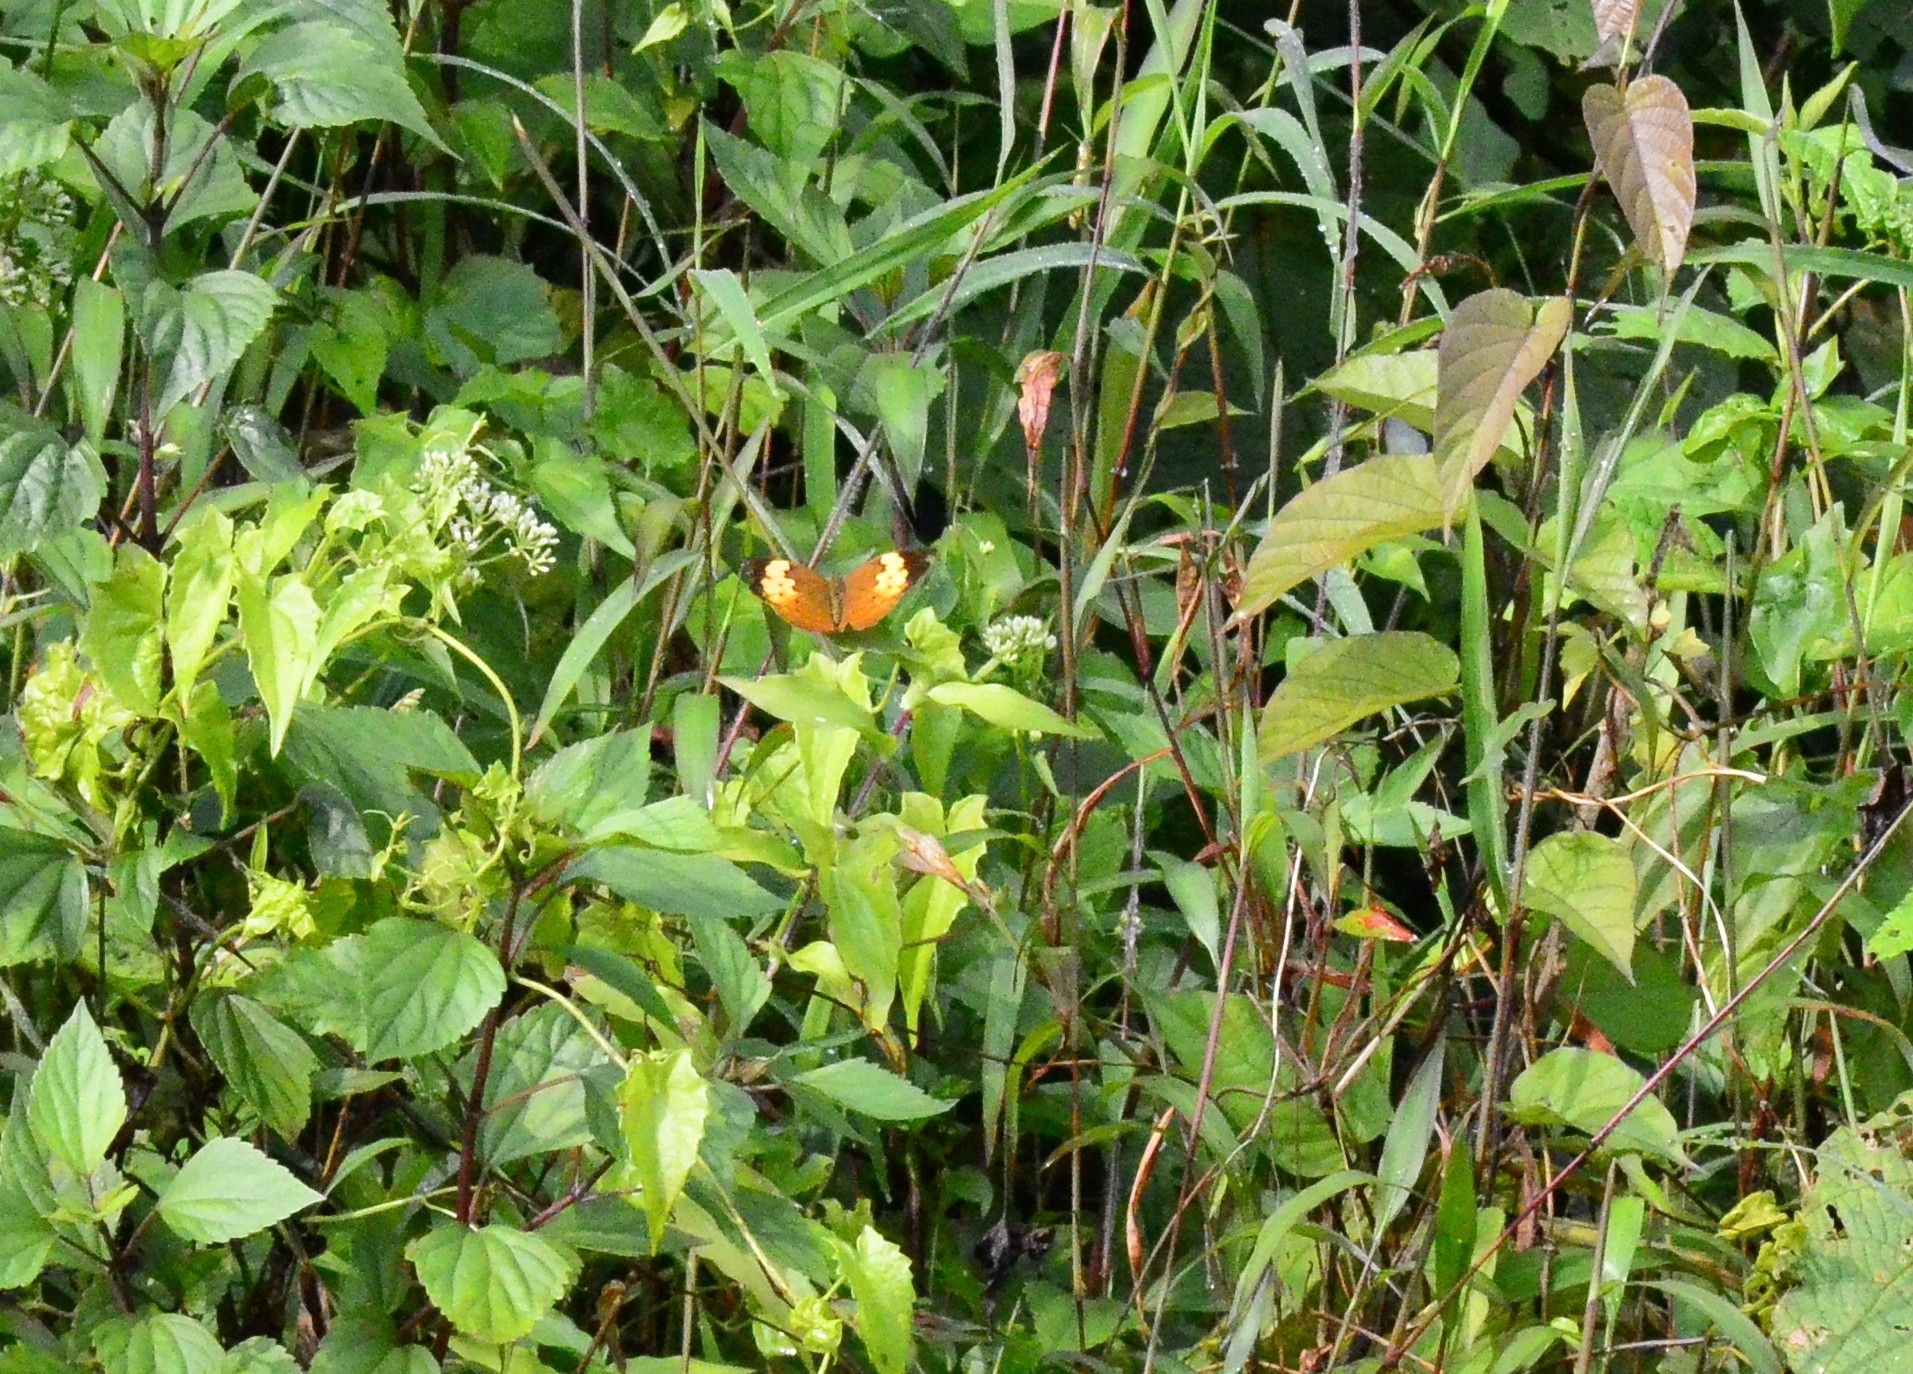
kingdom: Animalia
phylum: Arthropoda
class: Insecta
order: Lepidoptera
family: Nymphalidae
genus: Cupha
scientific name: Cupha erymanthis
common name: Rustic
